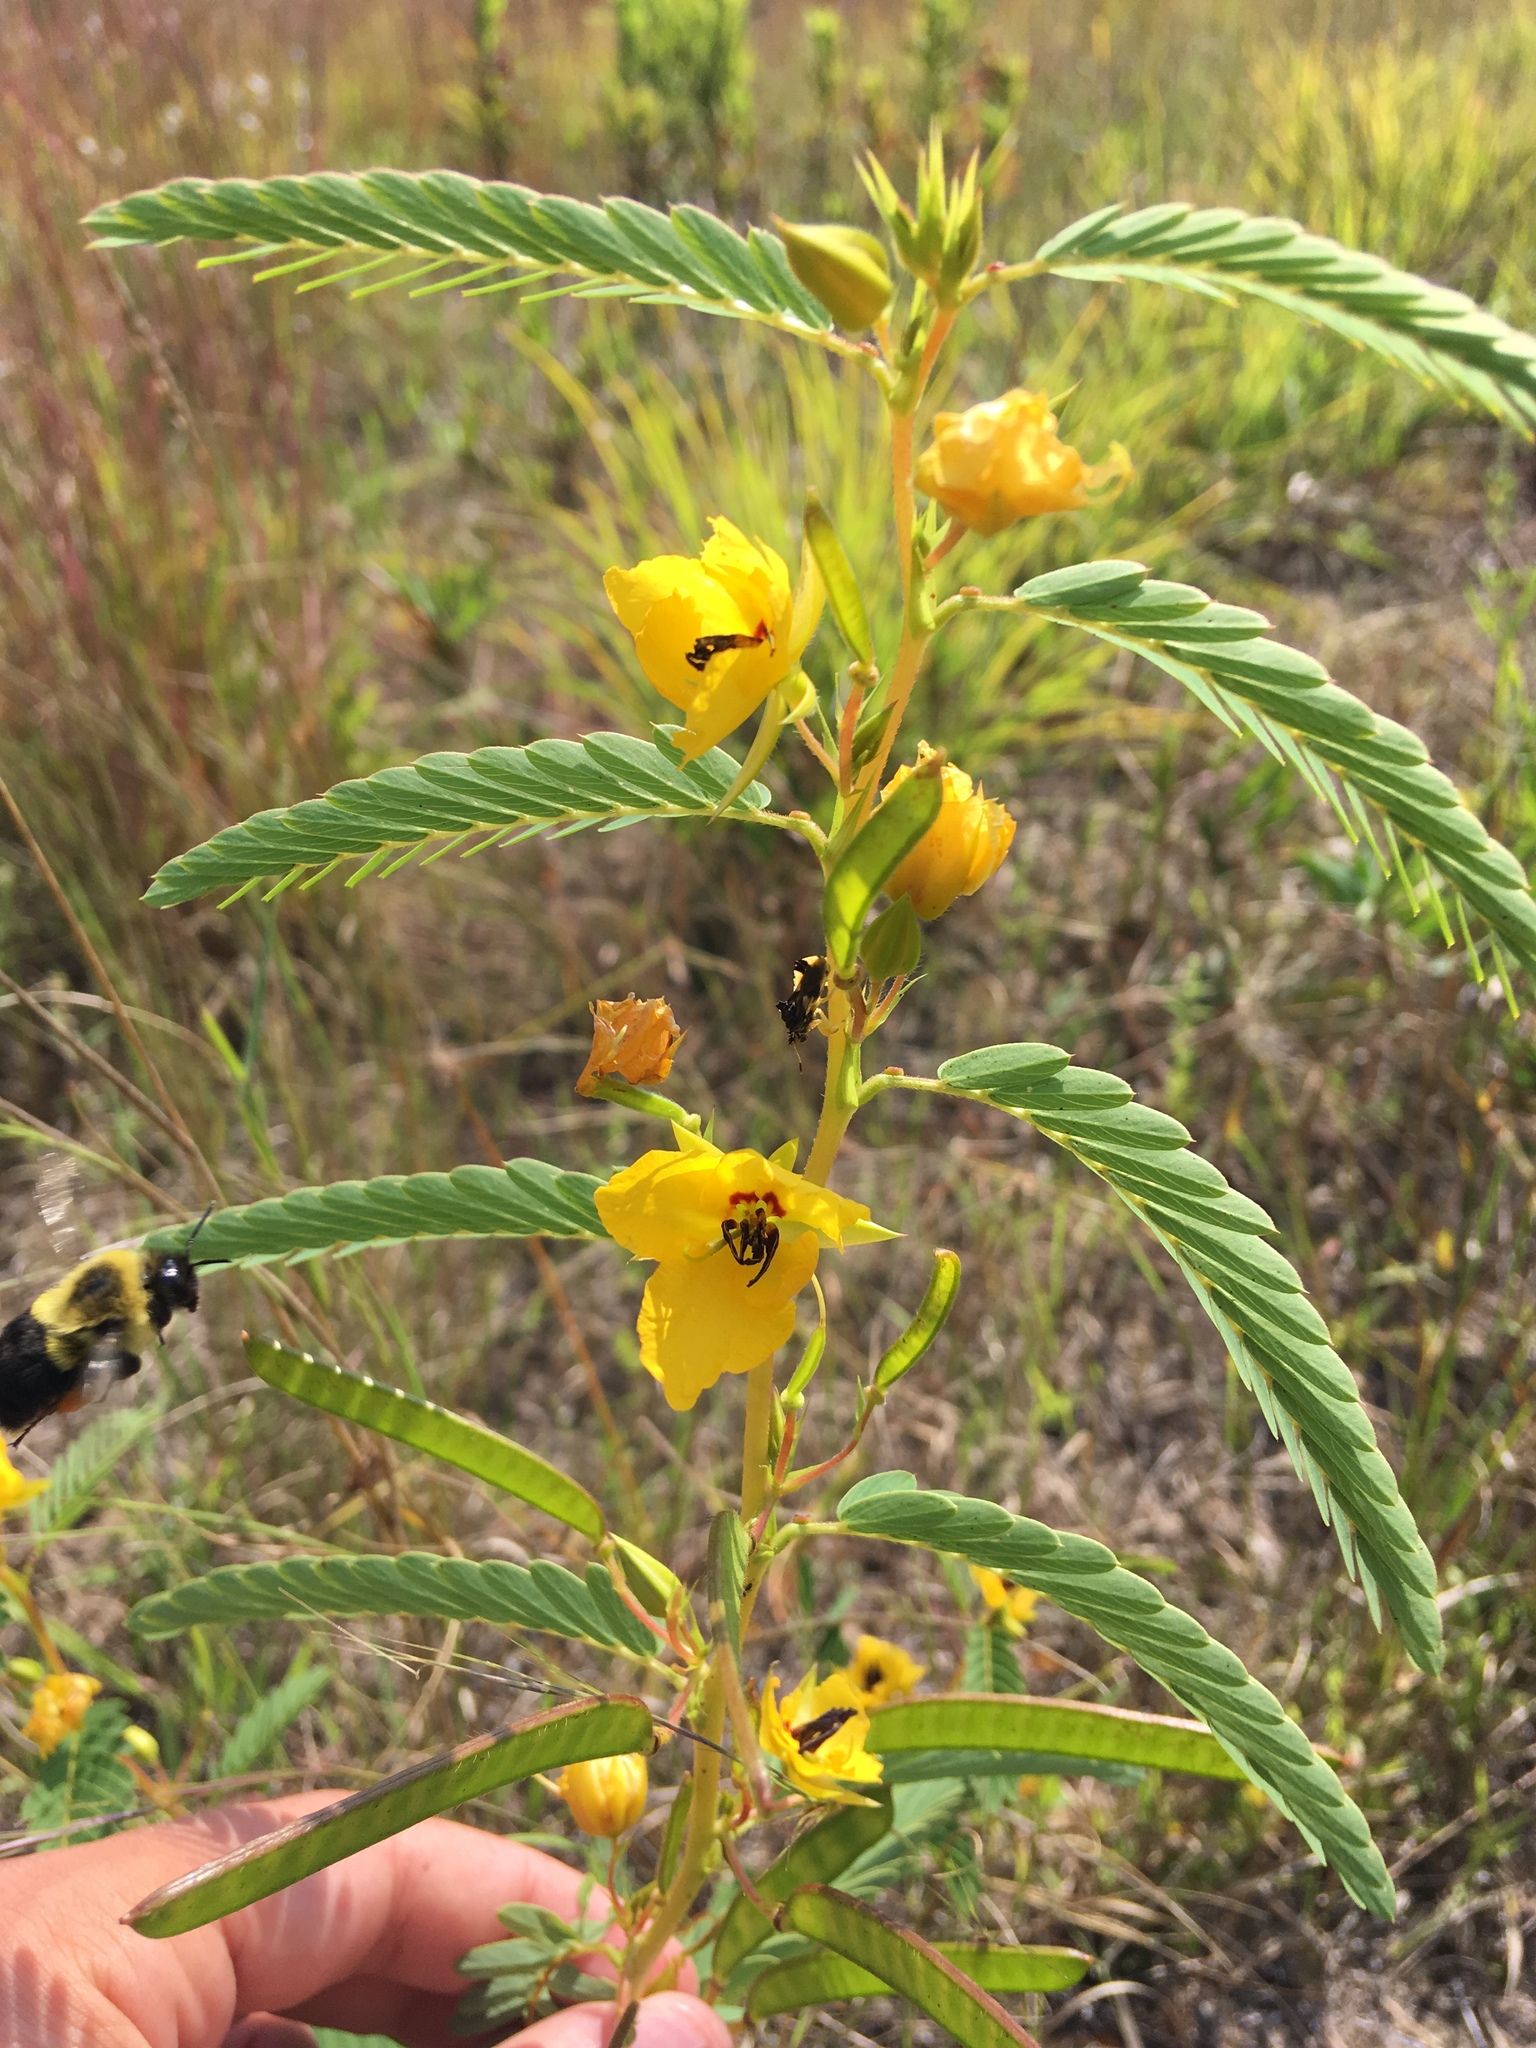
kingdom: Plantae
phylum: Tracheophyta
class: Magnoliopsida
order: Fabales
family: Fabaceae
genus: Chamaecrista
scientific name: Chamaecrista fasciculata
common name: Golden cassia
